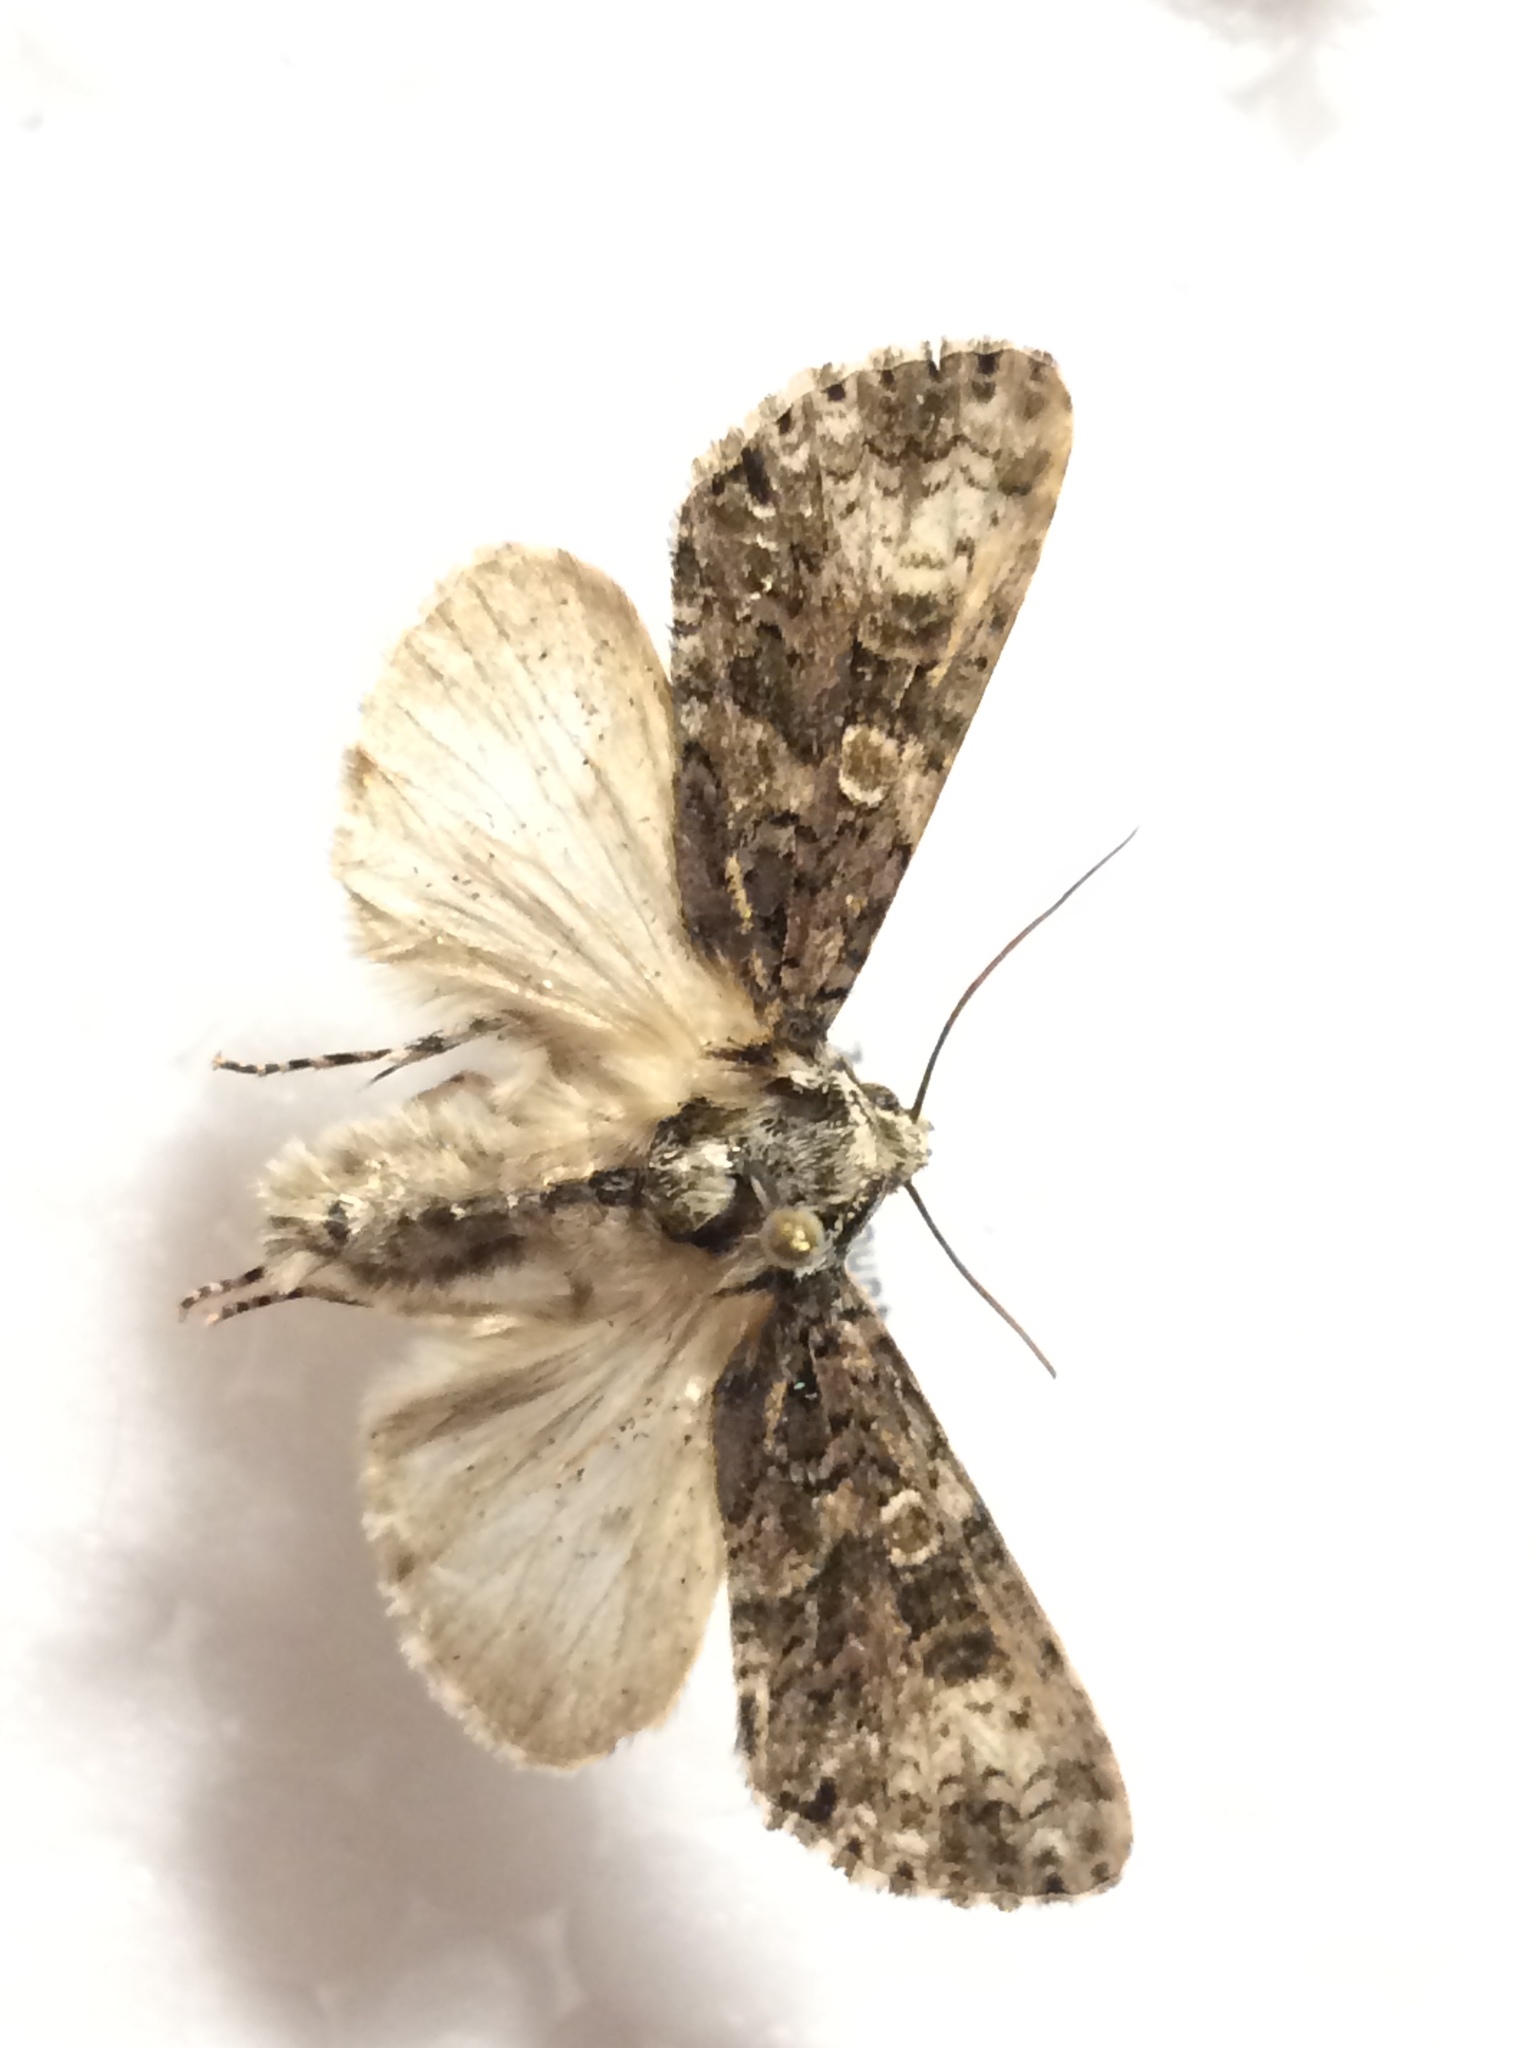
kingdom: Animalia
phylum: Arthropoda
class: Insecta
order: Lepidoptera
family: Noctuidae
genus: Craniophora
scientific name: Craniophora ligustri
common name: Coronet
